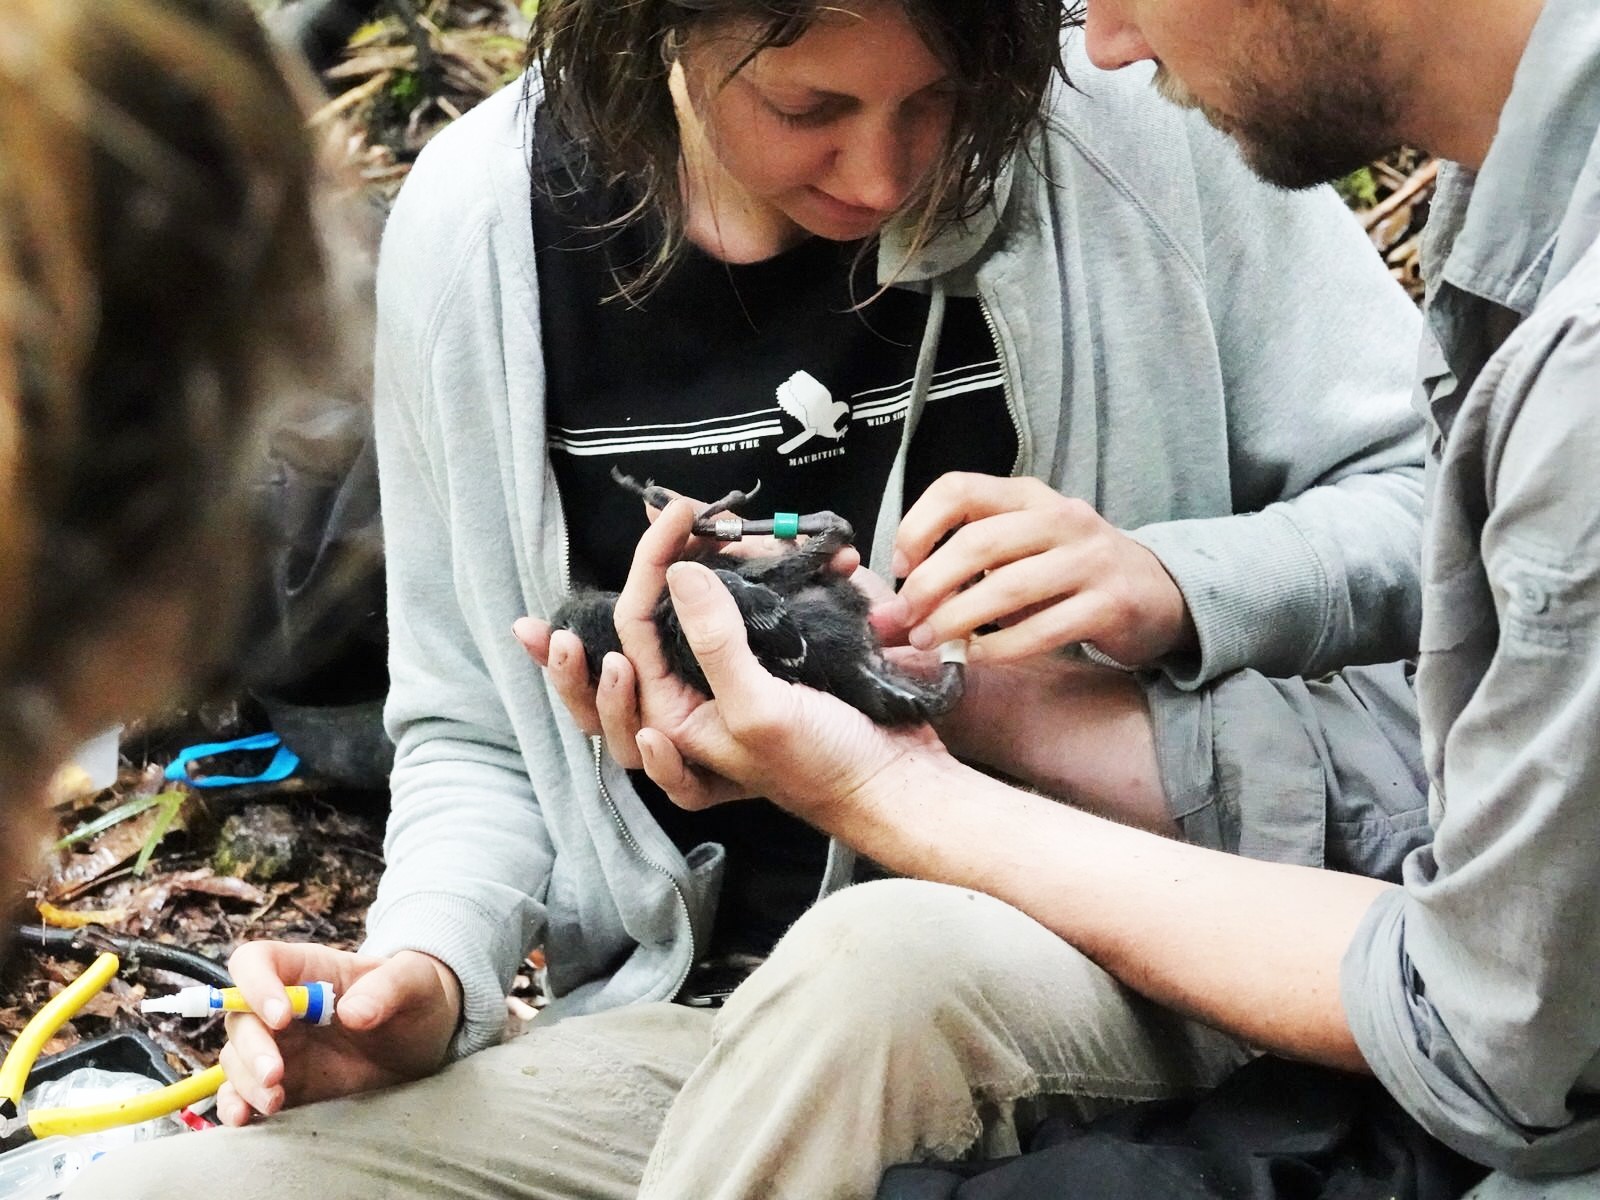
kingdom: Animalia
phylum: Chordata
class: Aves
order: Passeriformes
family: Callaeatidae
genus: Callaeas
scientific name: Callaeas cinereus
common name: South island kokako
